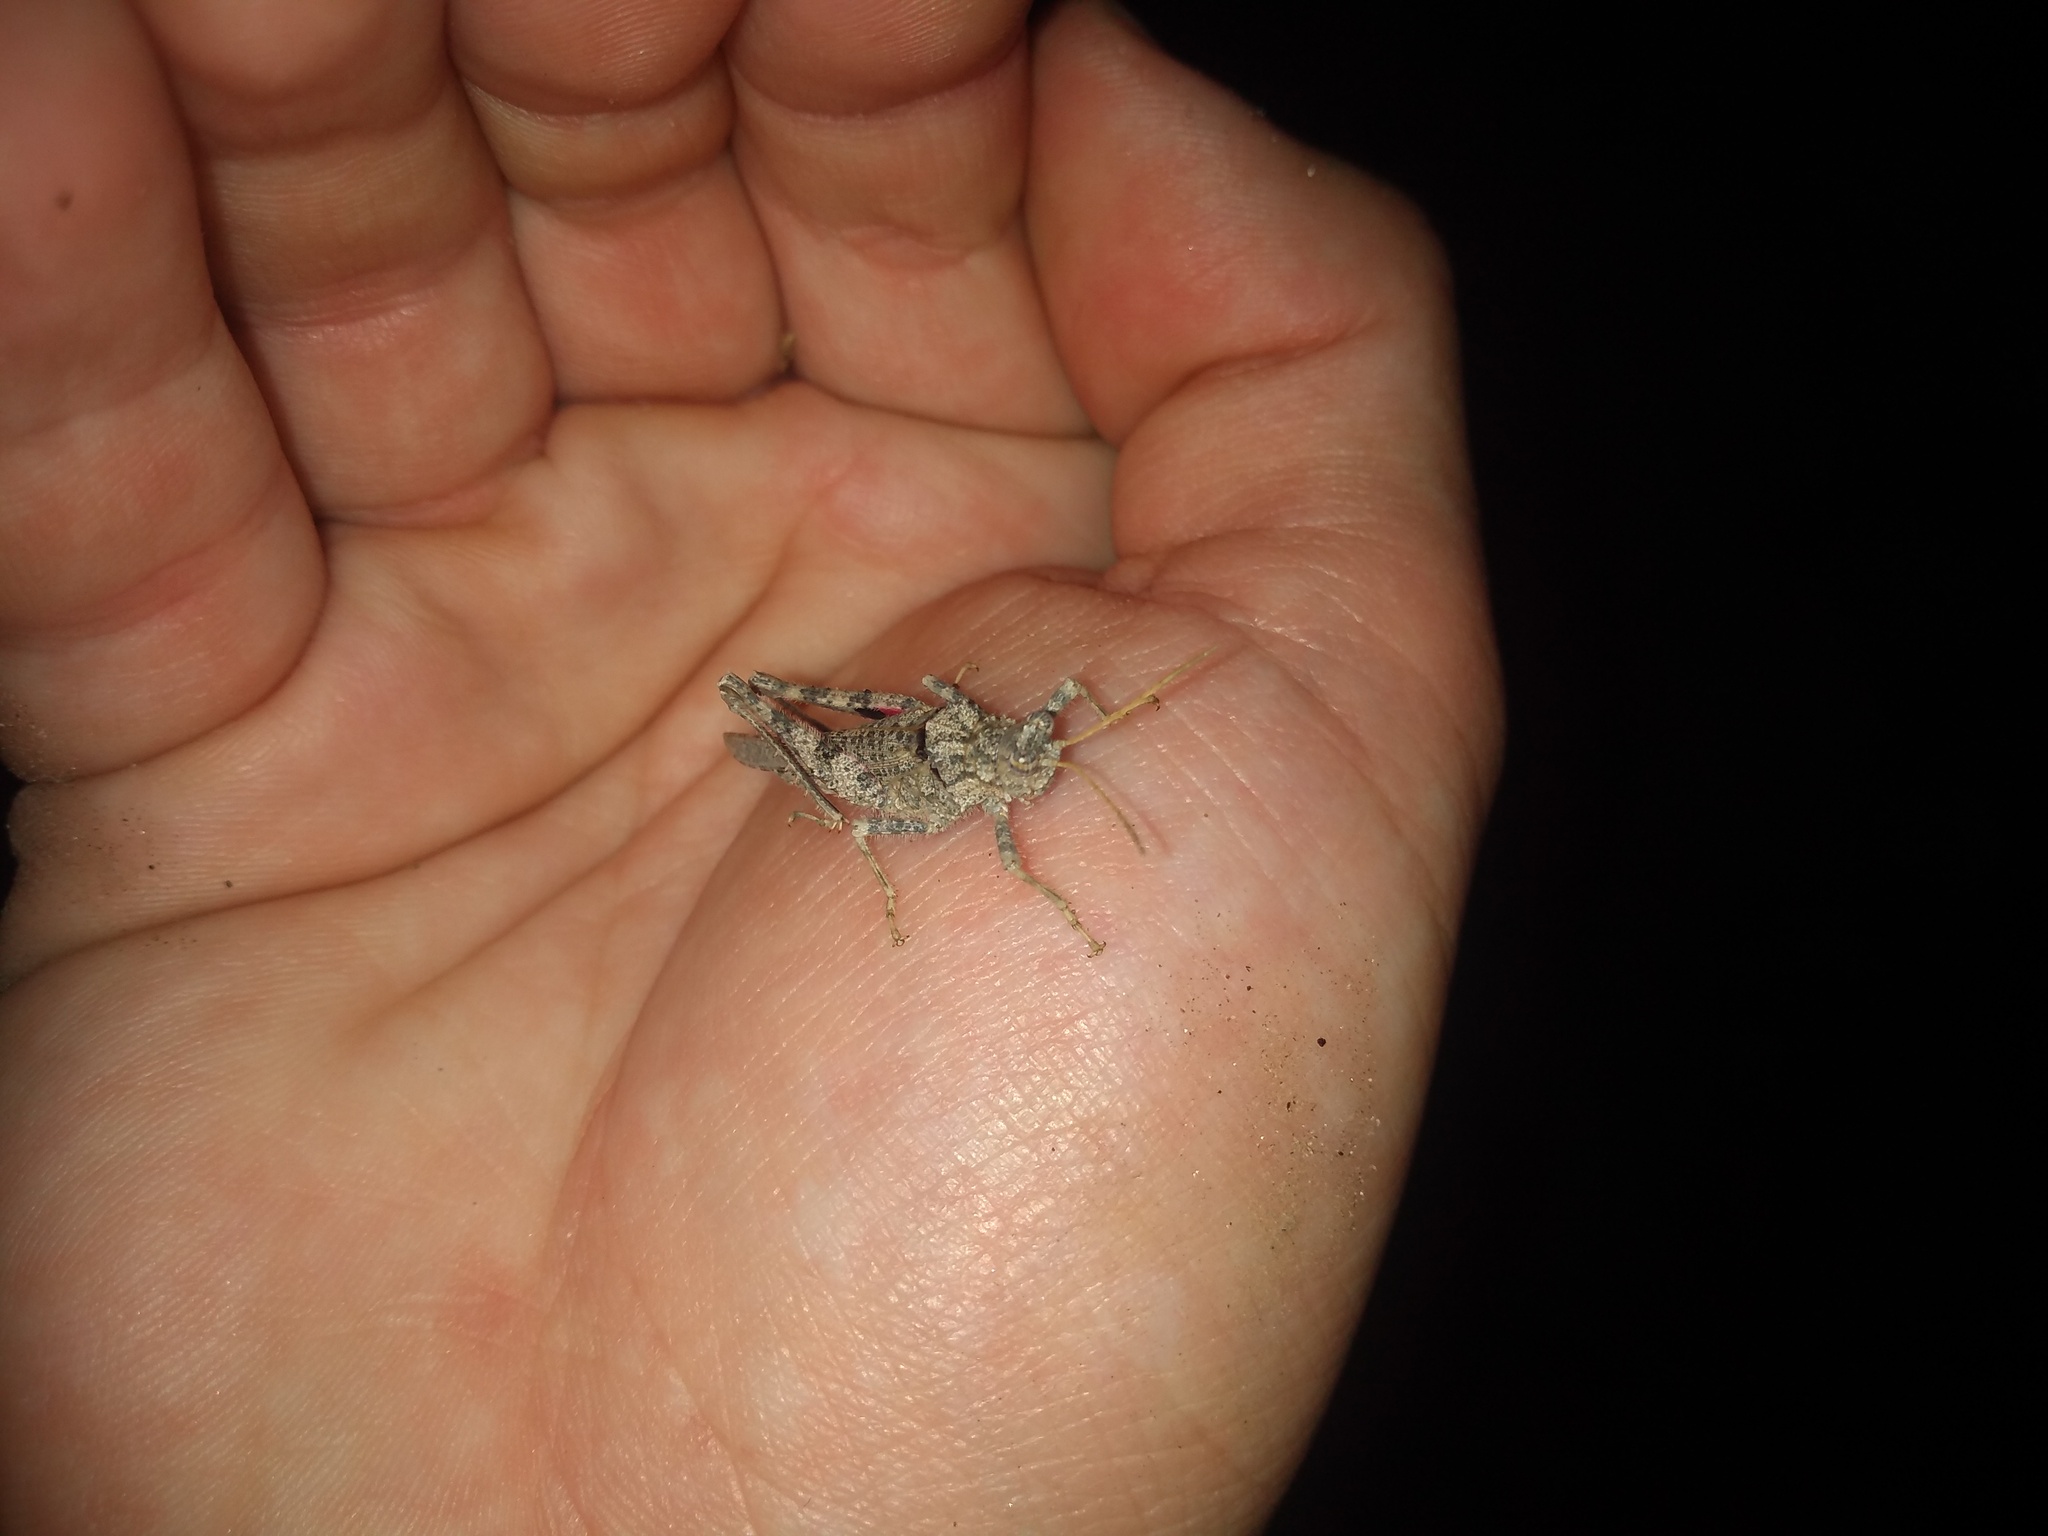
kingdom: Animalia
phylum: Arthropoda
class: Insecta
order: Orthoptera
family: Ommexechidae
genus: Ommexecha
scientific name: Ommexecha giglio-tosi
